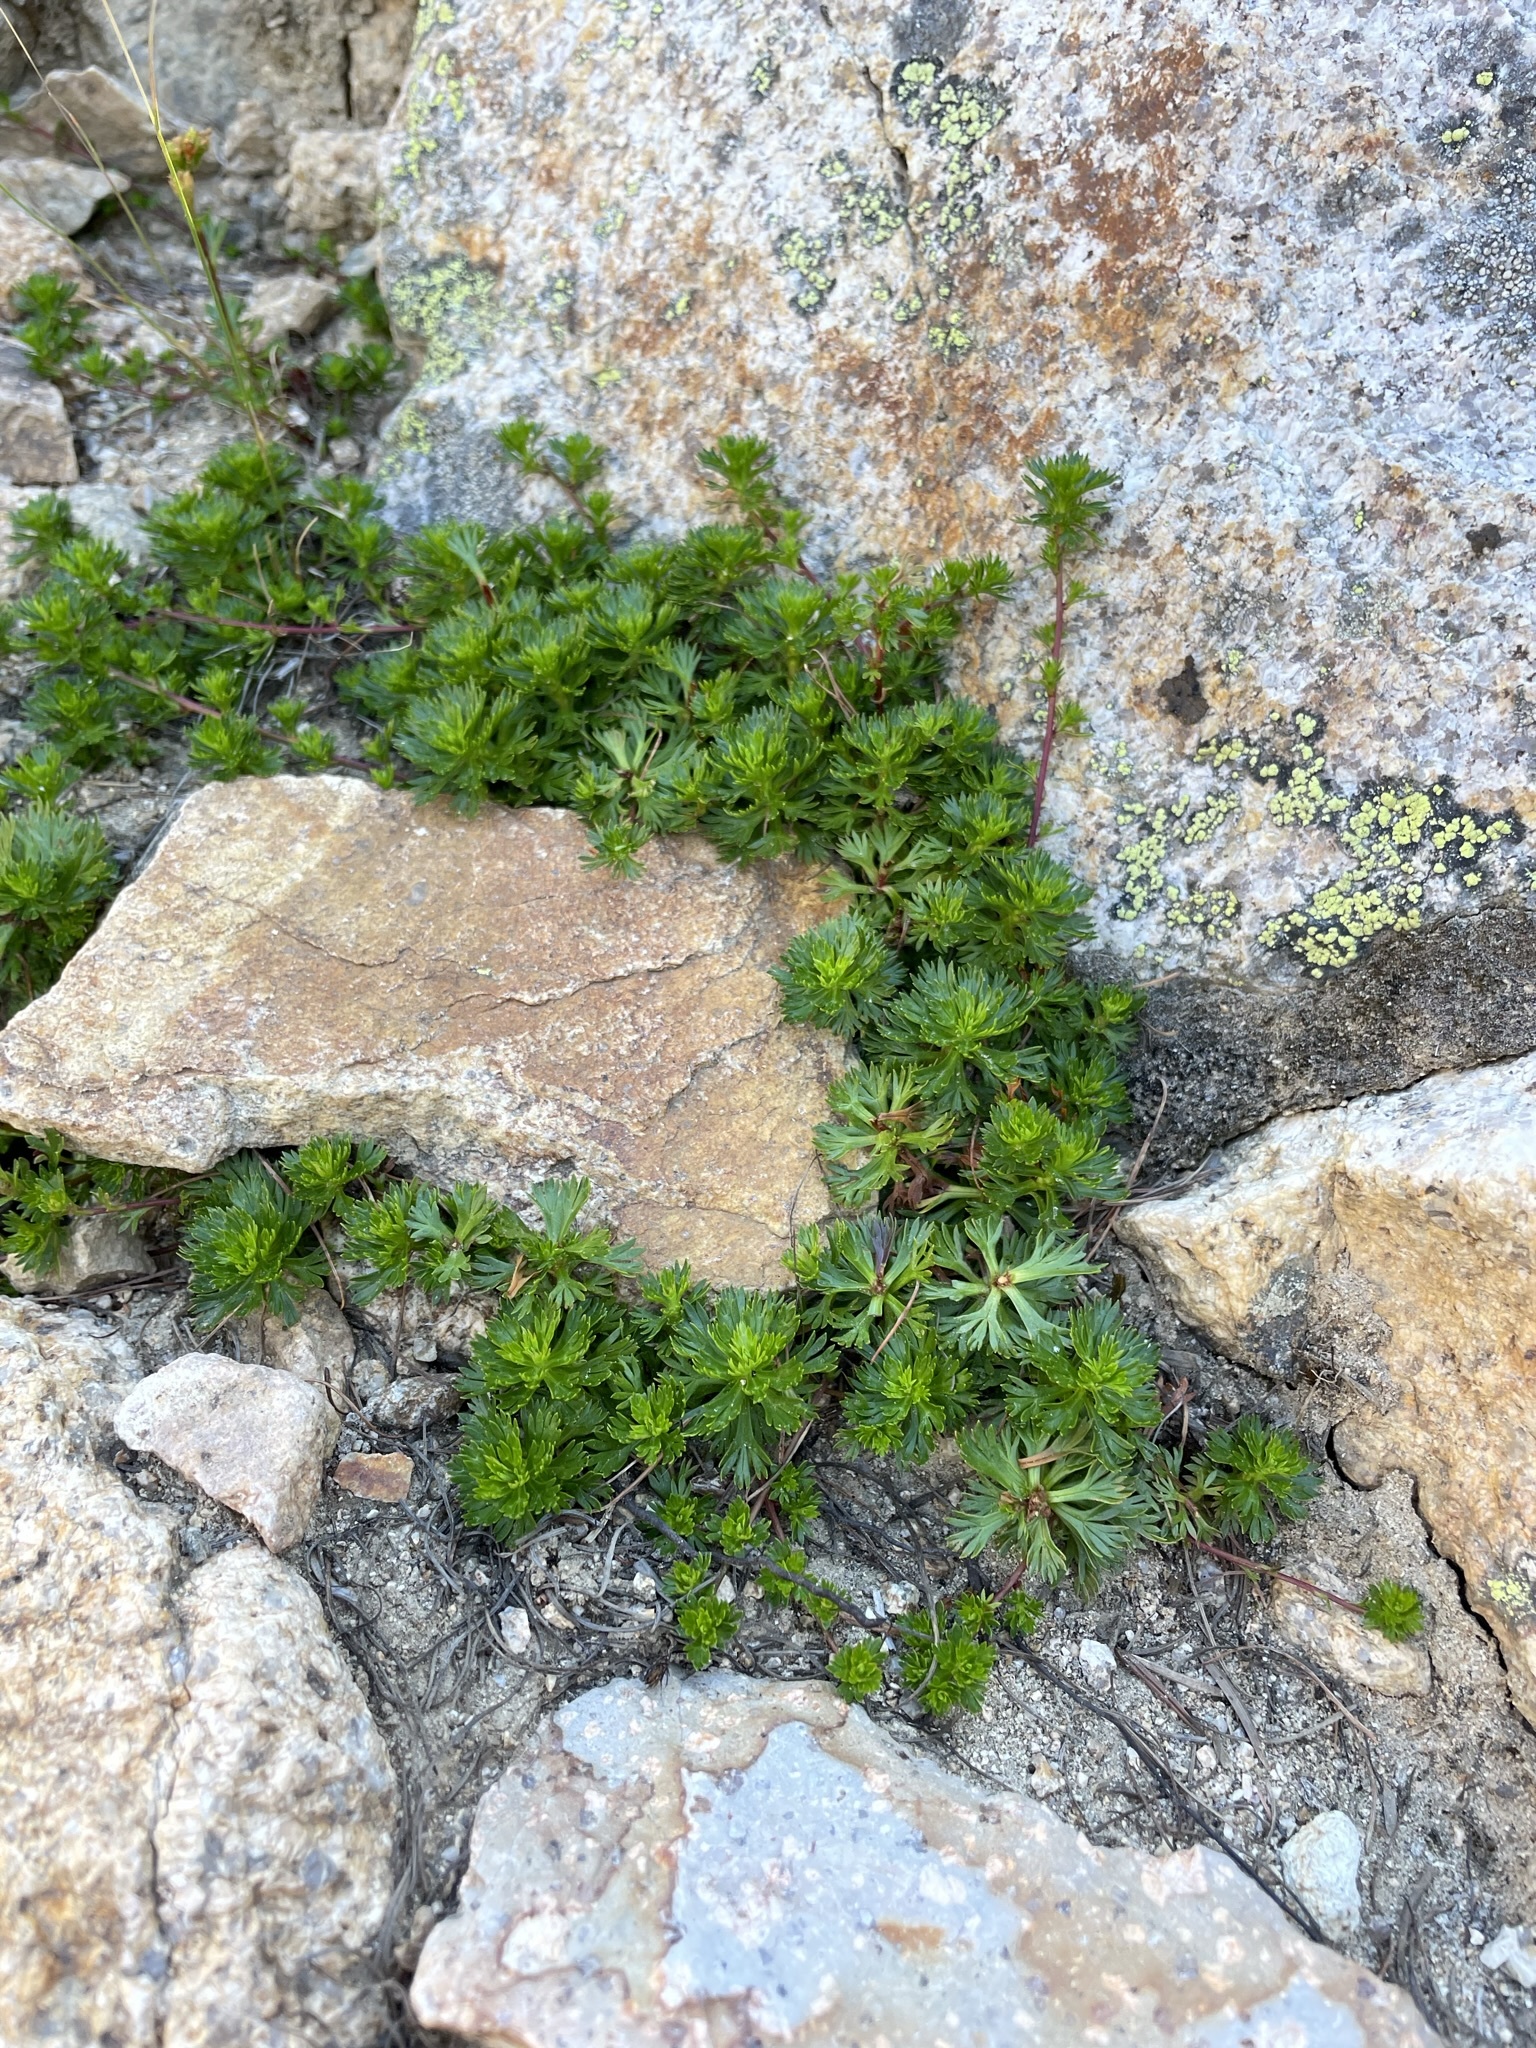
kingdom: Plantae
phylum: Tracheophyta
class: Magnoliopsida
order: Rosales
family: Rosaceae
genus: Luetkea
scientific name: Luetkea pectinata
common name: Partridgefoot
